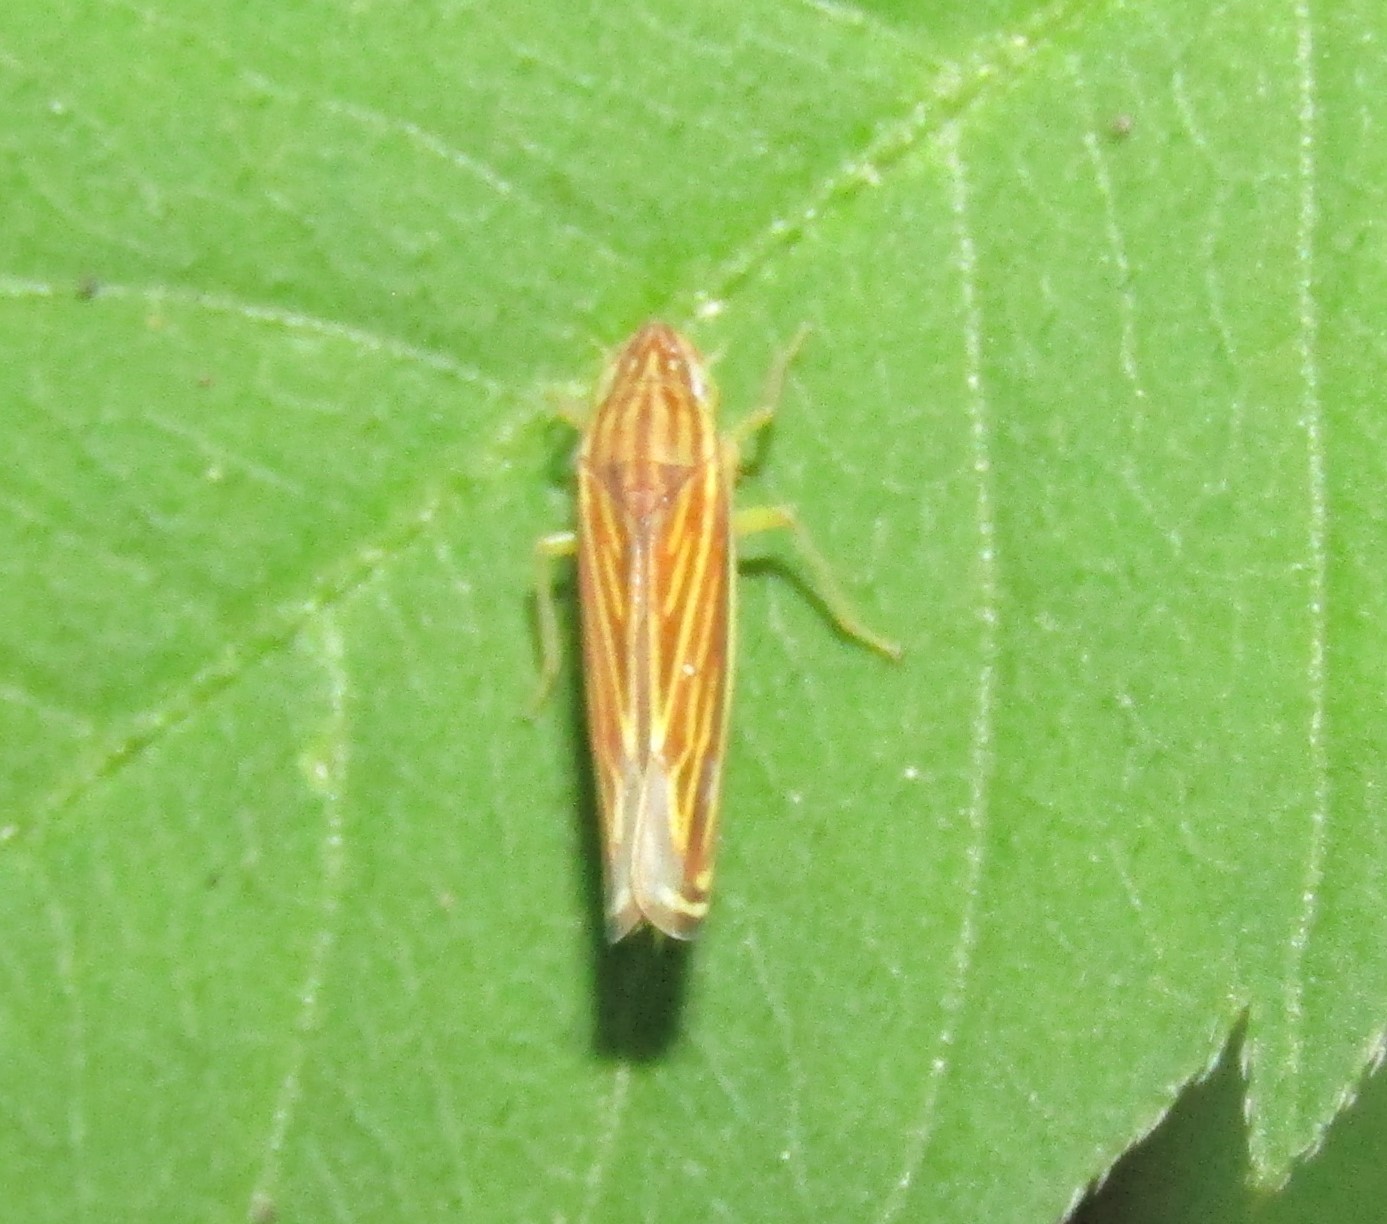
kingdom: Animalia
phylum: Arthropoda
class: Insecta
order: Hemiptera
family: Cicadellidae
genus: Sibovia
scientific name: Sibovia occatoria
